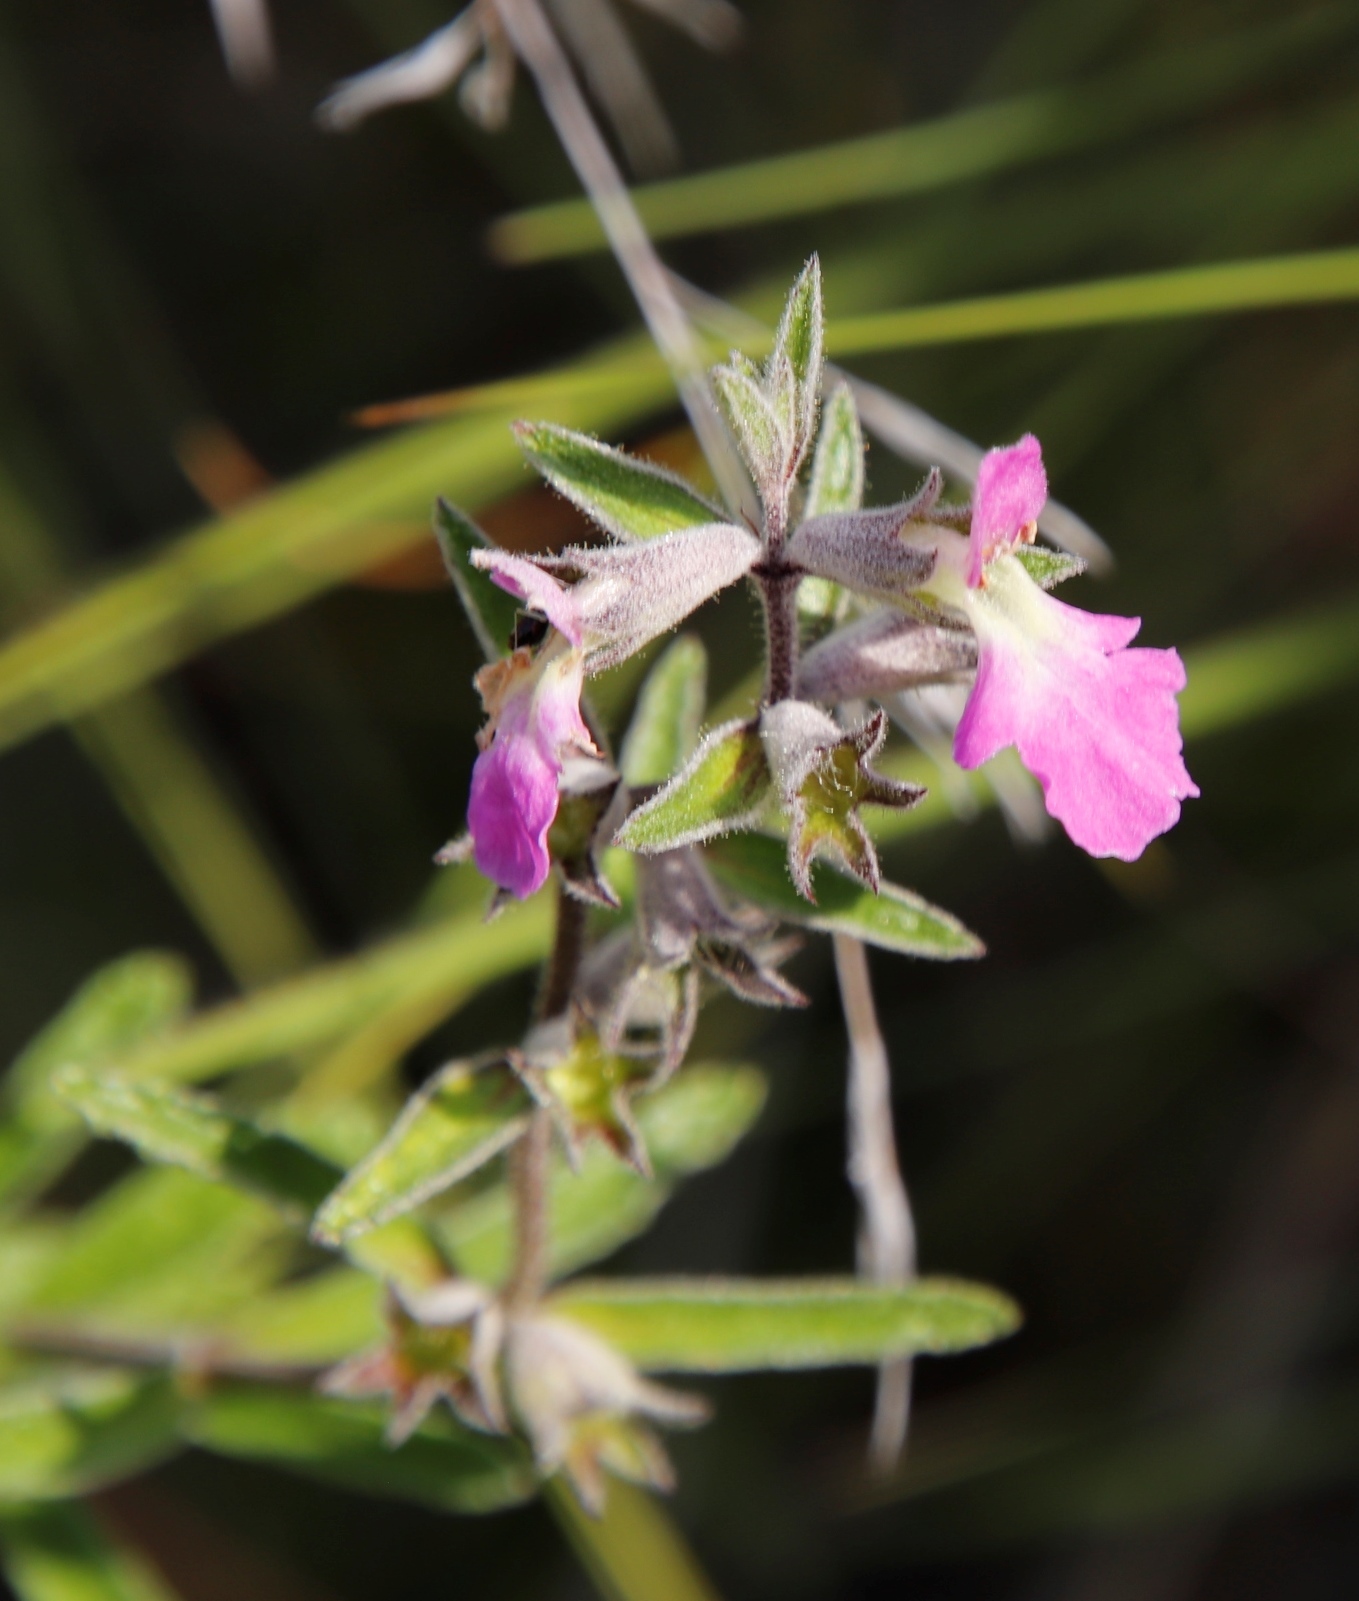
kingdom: Plantae
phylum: Tracheophyta
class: Magnoliopsida
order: Lamiales
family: Lamiaceae
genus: Stachys
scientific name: Stachys rugosa
